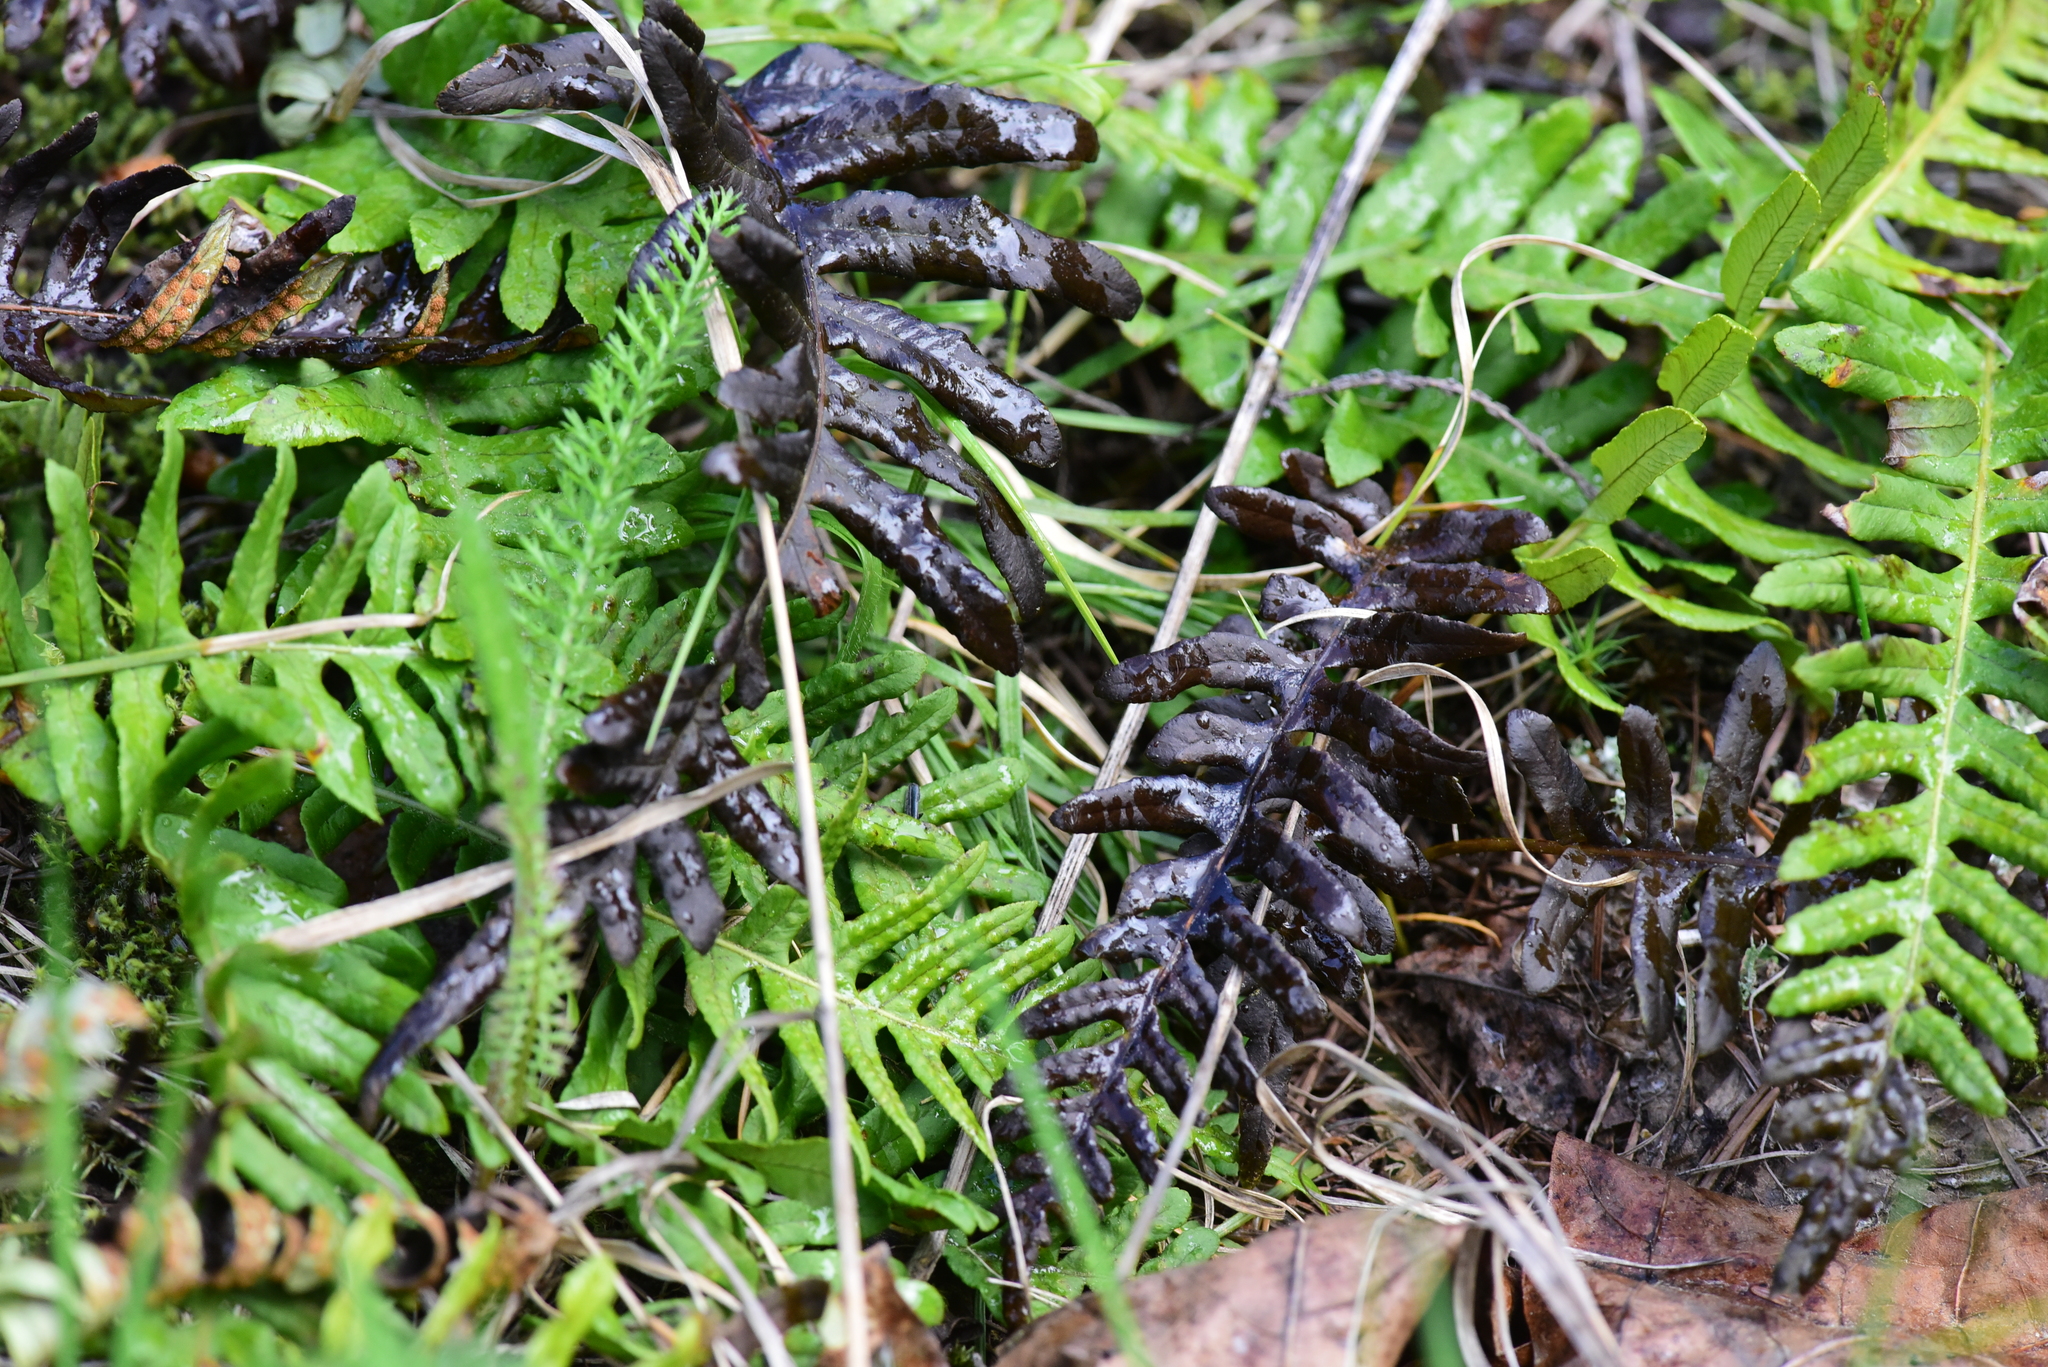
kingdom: Plantae
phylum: Tracheophyta
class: Polypodiopsida
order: Polypodiales
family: Polypodiaceae
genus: Polypodium
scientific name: Polypodium glycyrrhiza
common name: Licorice fern
